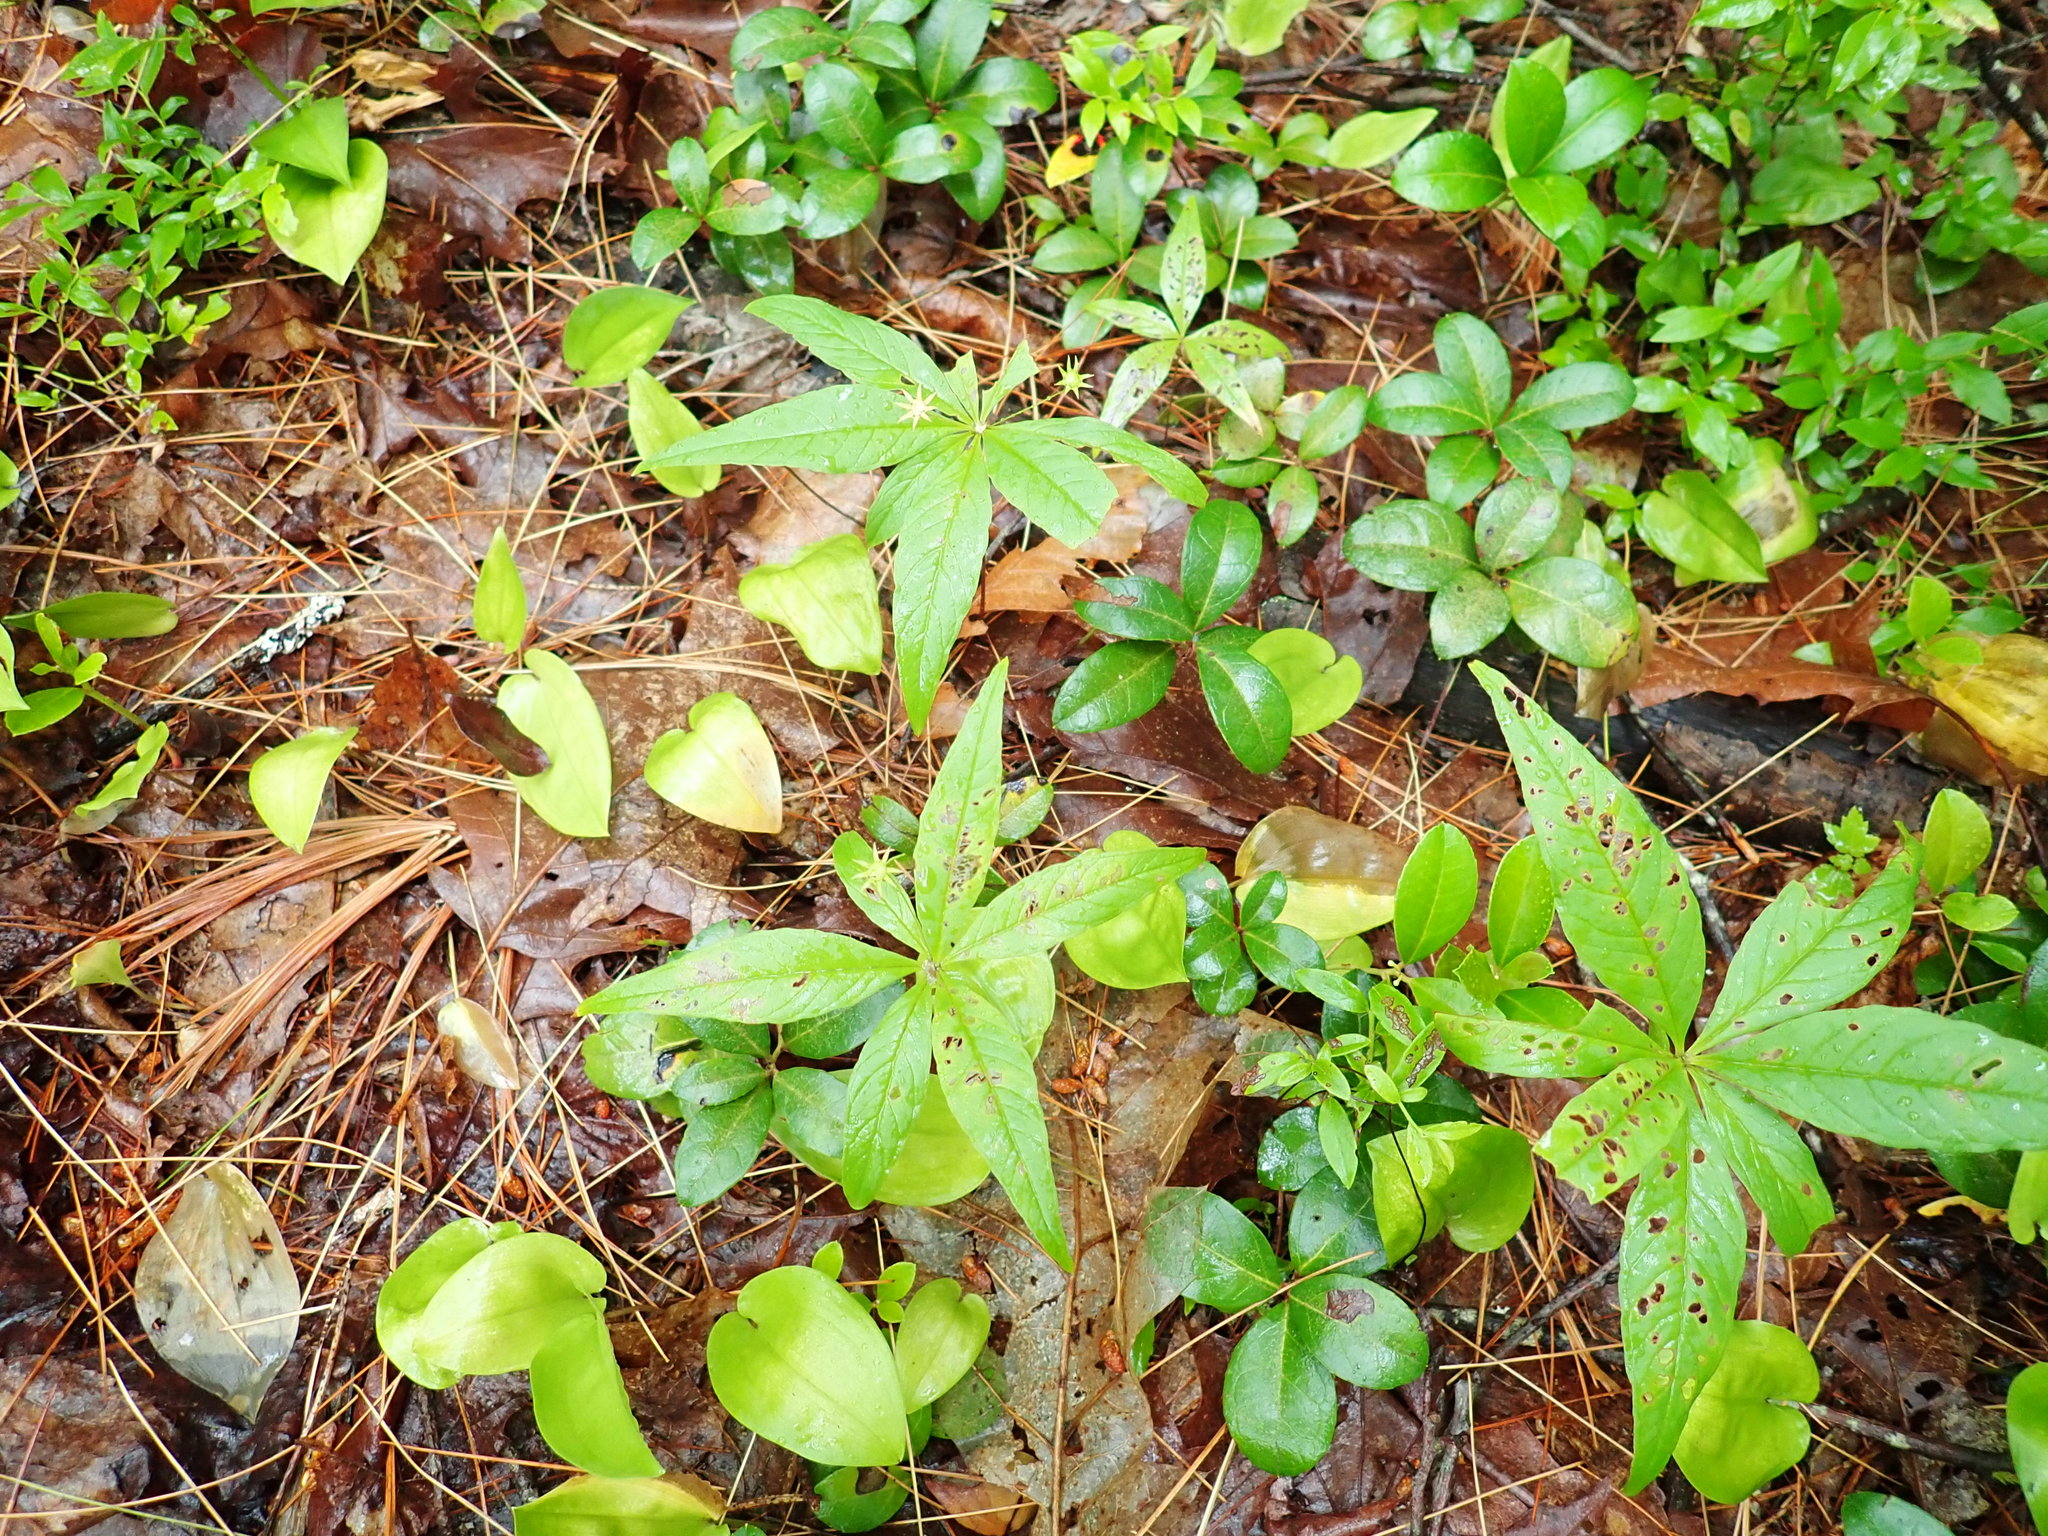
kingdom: Plantae
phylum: Tracheophyta
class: Magnoliopsida
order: Ericales
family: Primulaceae
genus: Lysimachia
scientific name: Lysimachia borealis
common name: American starflower
